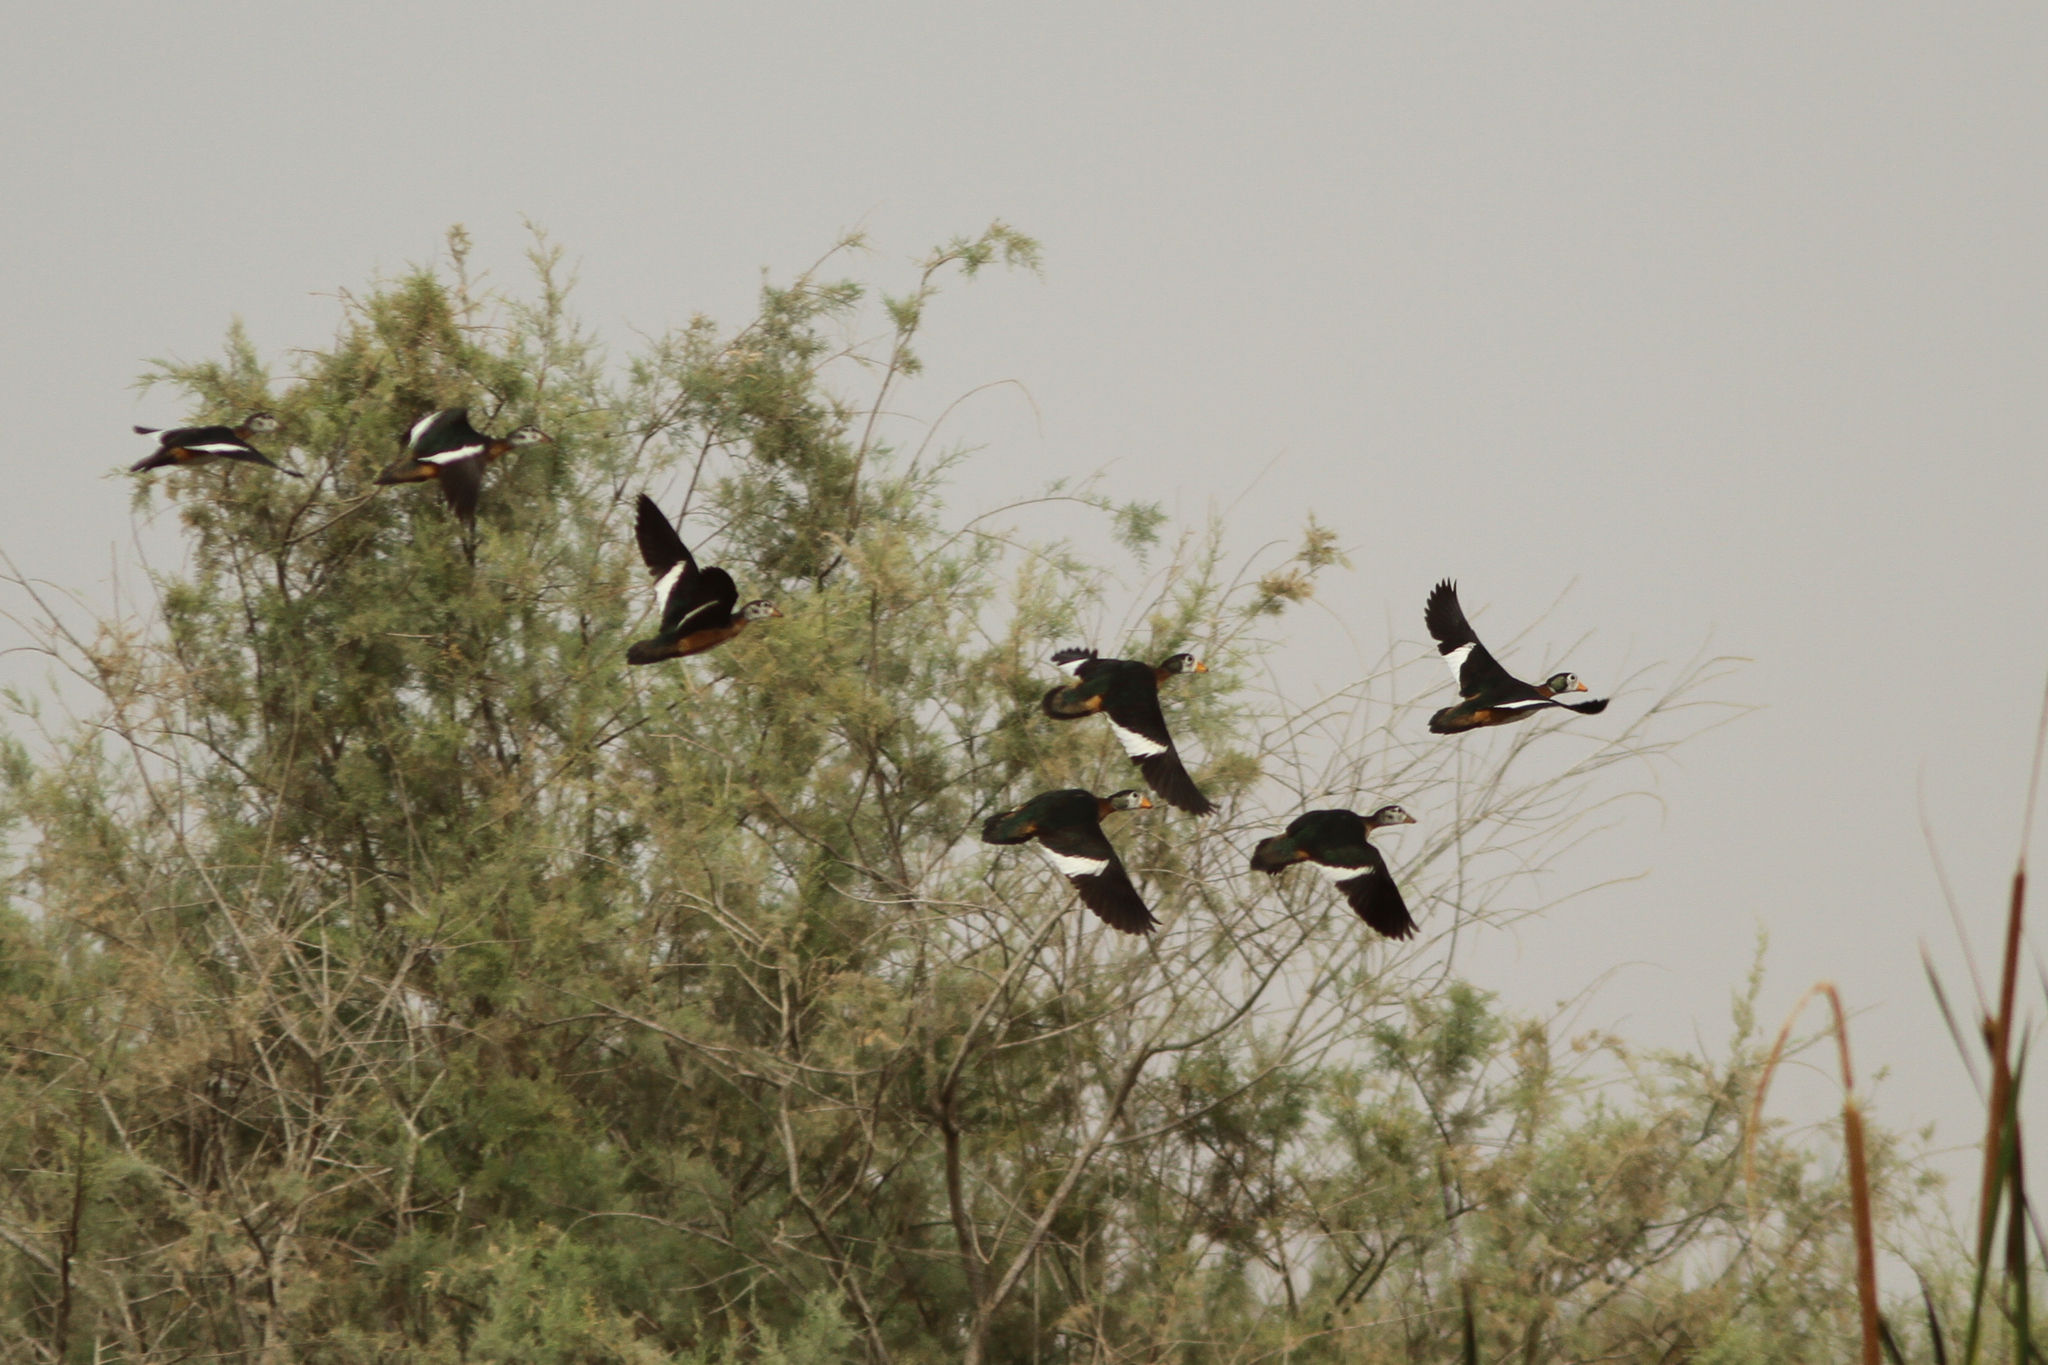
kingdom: Animalia
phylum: Chordata
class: Aves
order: Anseriformes
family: Anatidae
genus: Nettapus
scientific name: Nettapus auritus
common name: African pygmy-goose
